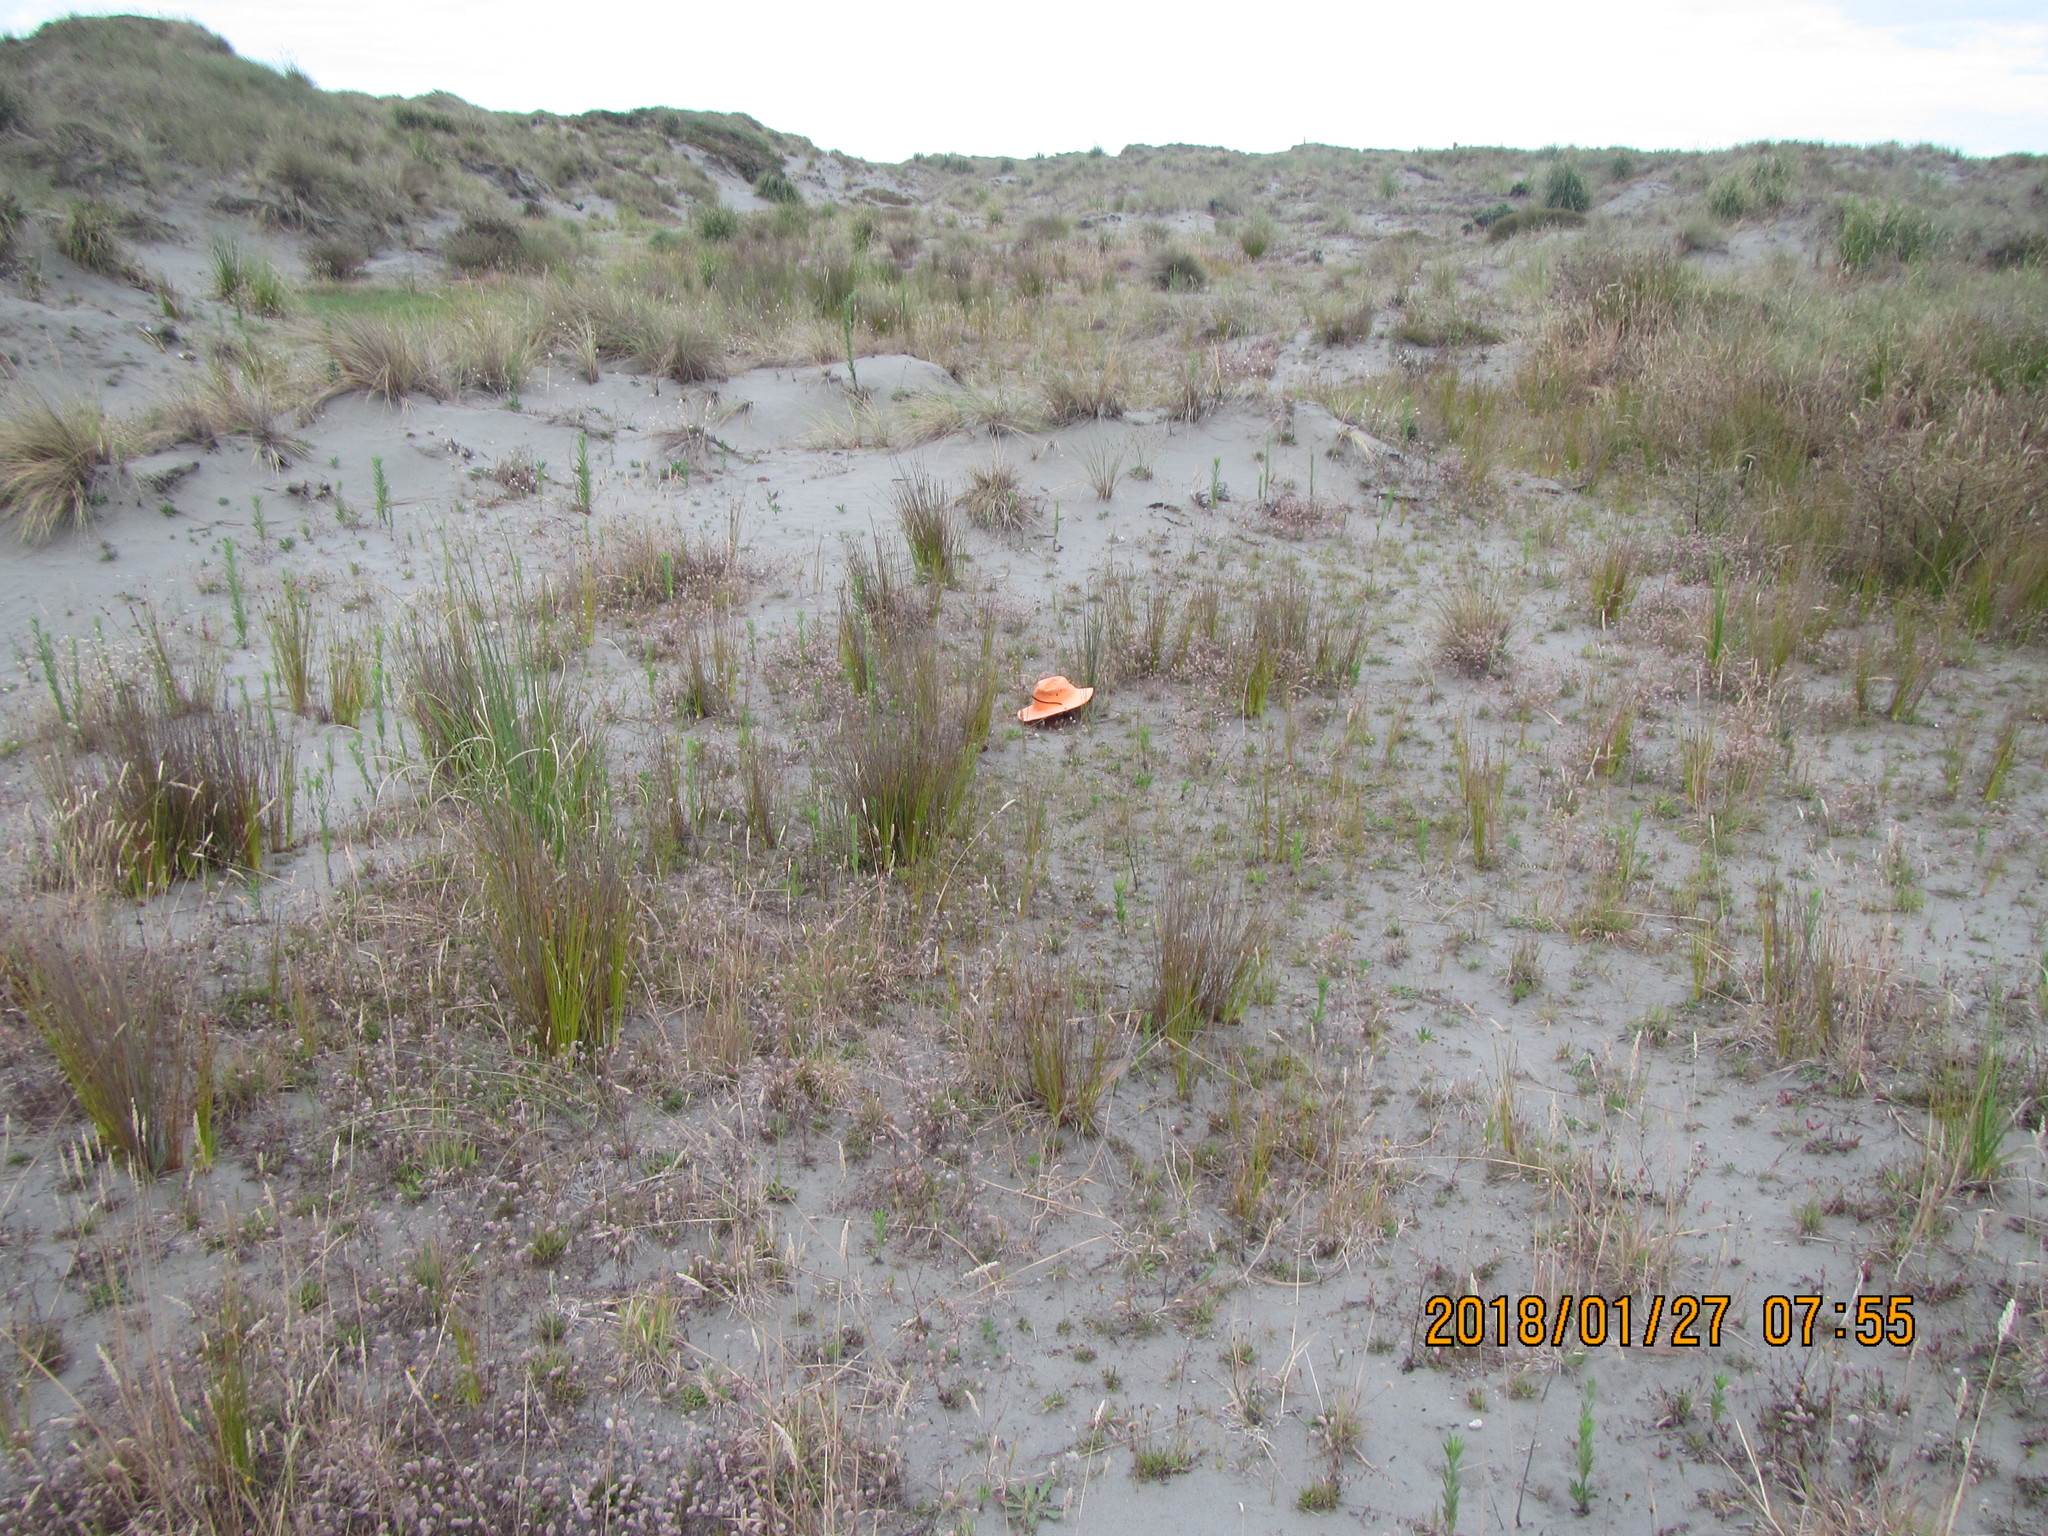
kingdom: Plantae
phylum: Tracheophyta
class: Liliopsida
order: Poales
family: Juncaceae
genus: Juncus
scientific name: Juncus acutus
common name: Sharp rush
